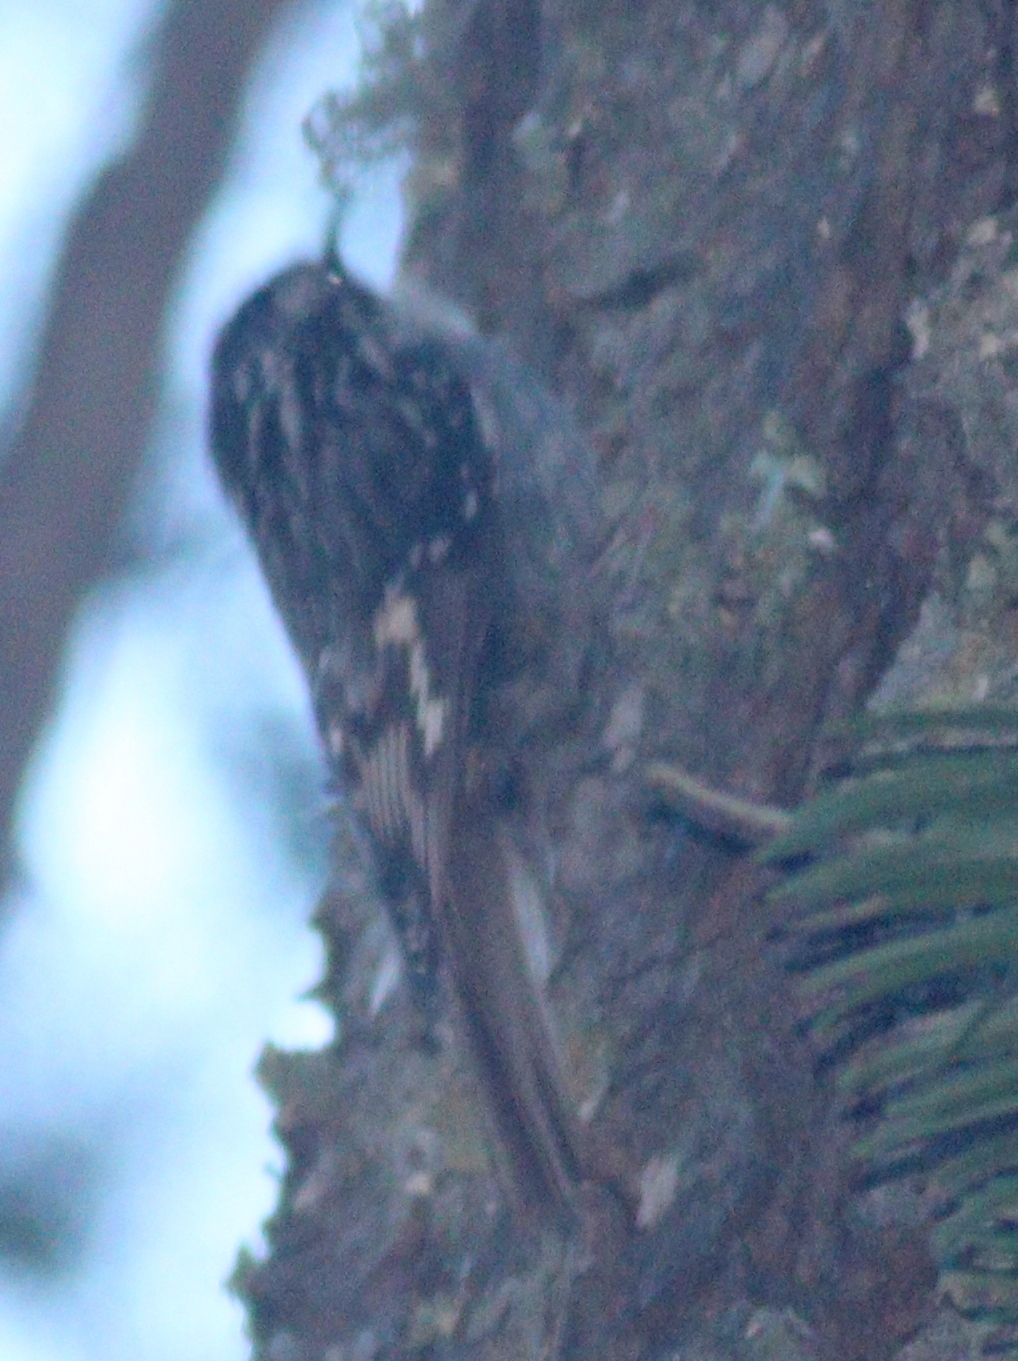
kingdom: Animalia
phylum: Chordata
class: Aves
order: Passeriformes
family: Certhiidae
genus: Certhia
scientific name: Certhia americana
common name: Brown creeper
